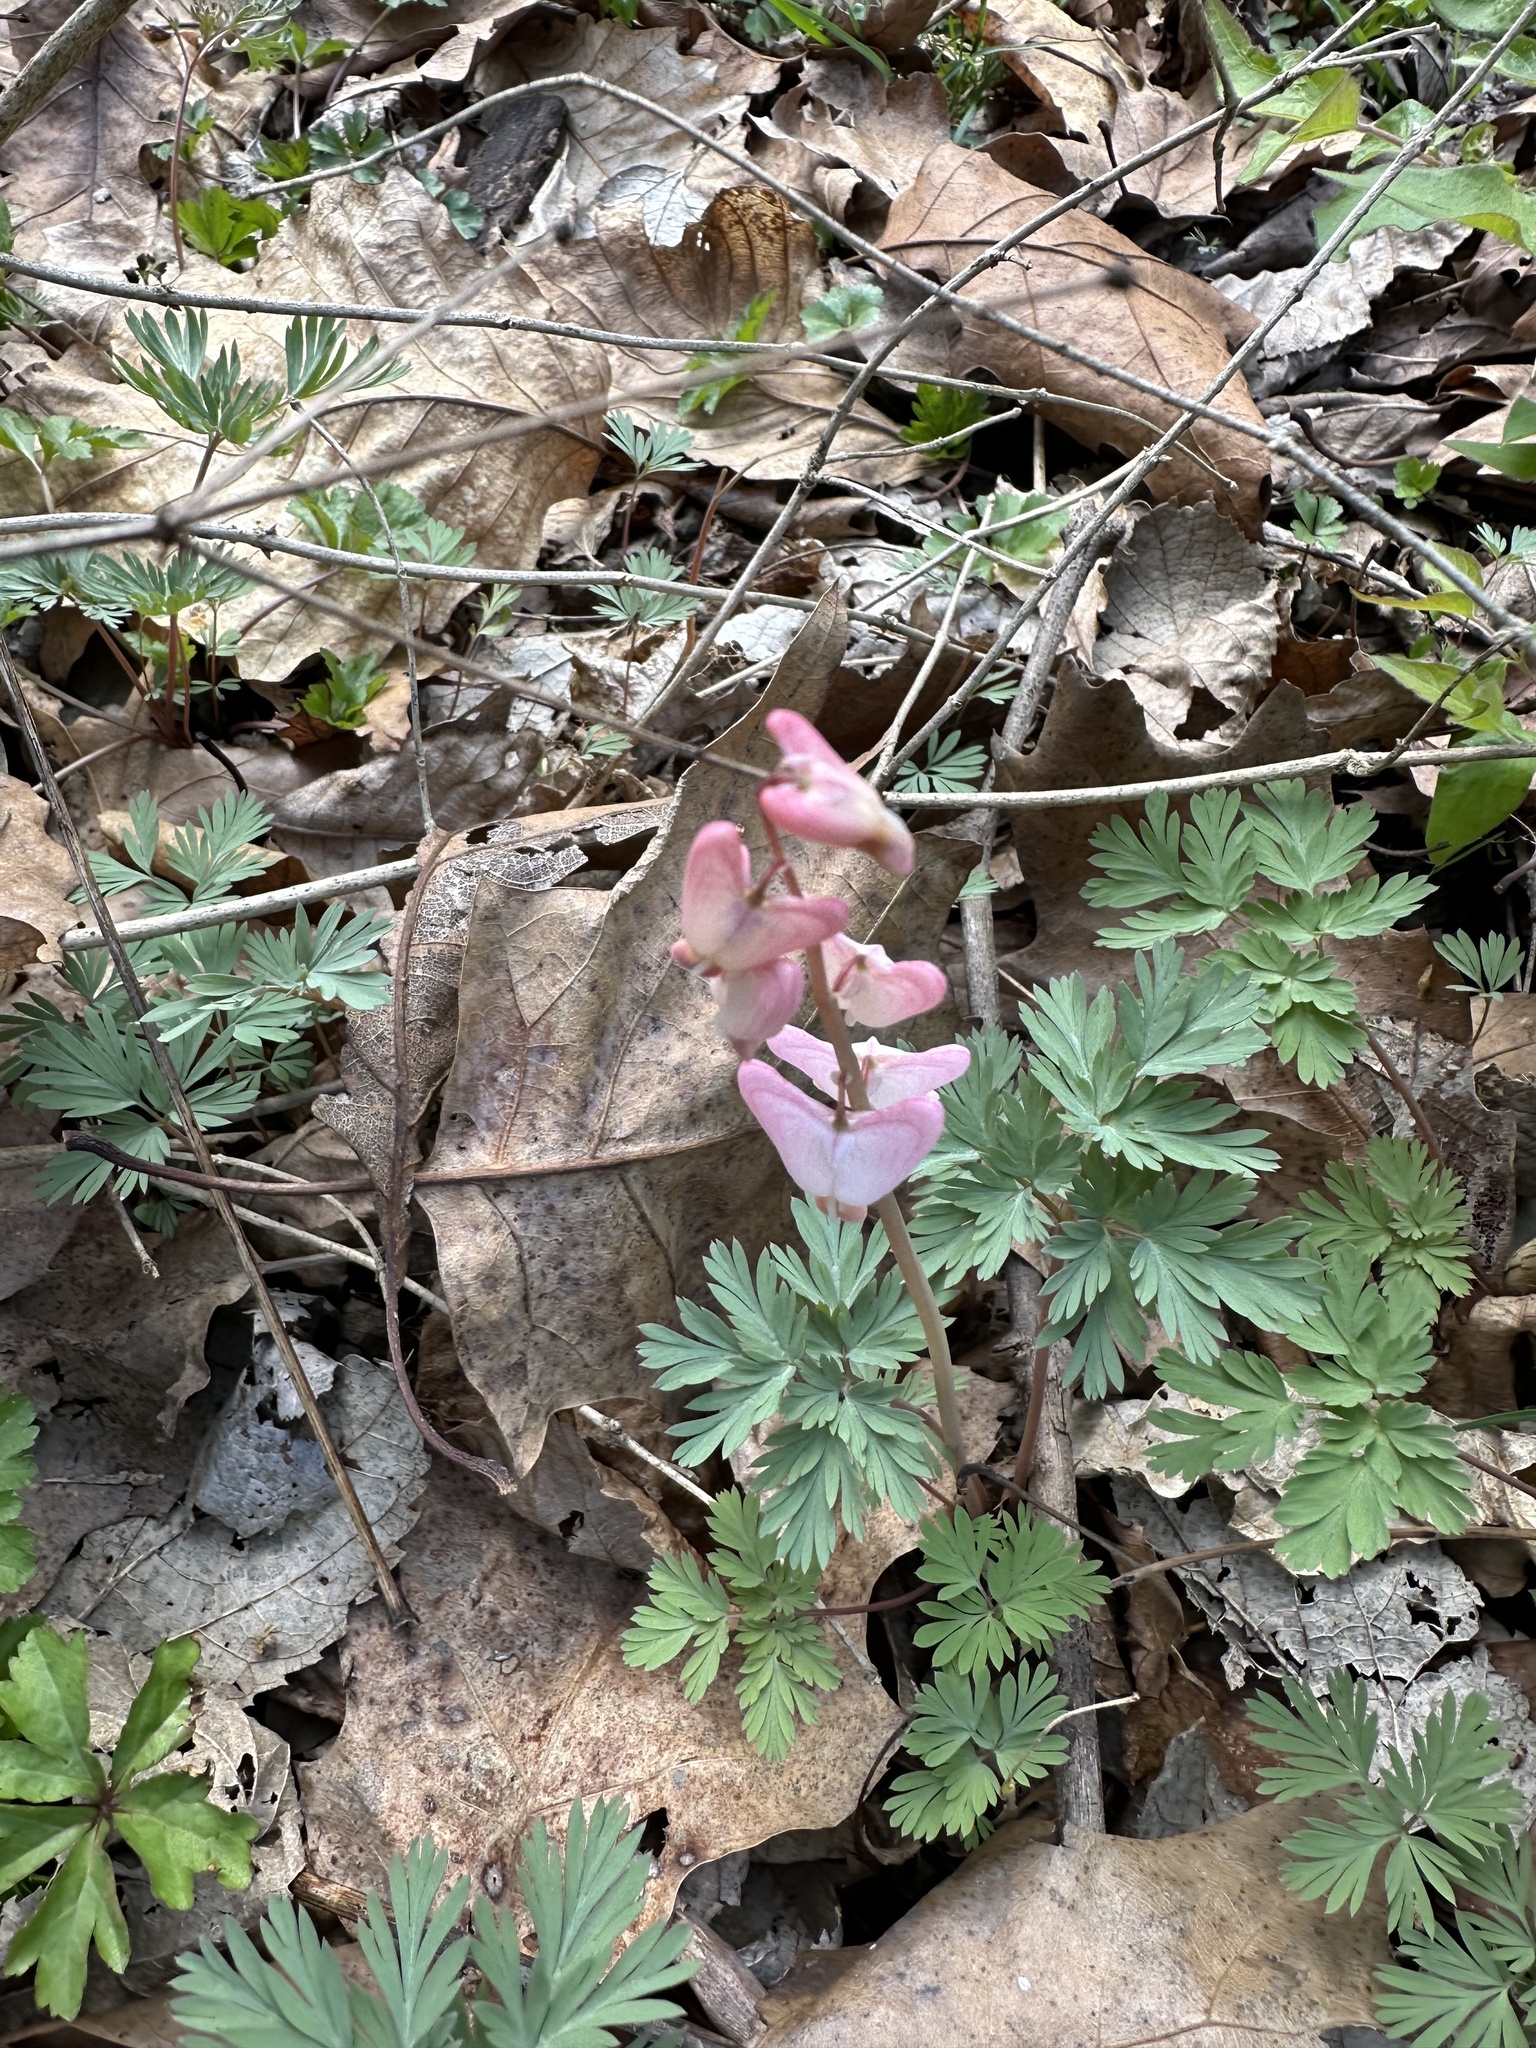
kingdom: Plantae
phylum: Tracheophyta
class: Magnoliopsida
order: Ranunculales
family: Papaveraceae
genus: Dicentra
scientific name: Dicentra cucullaria
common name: Dutchman's breeches
